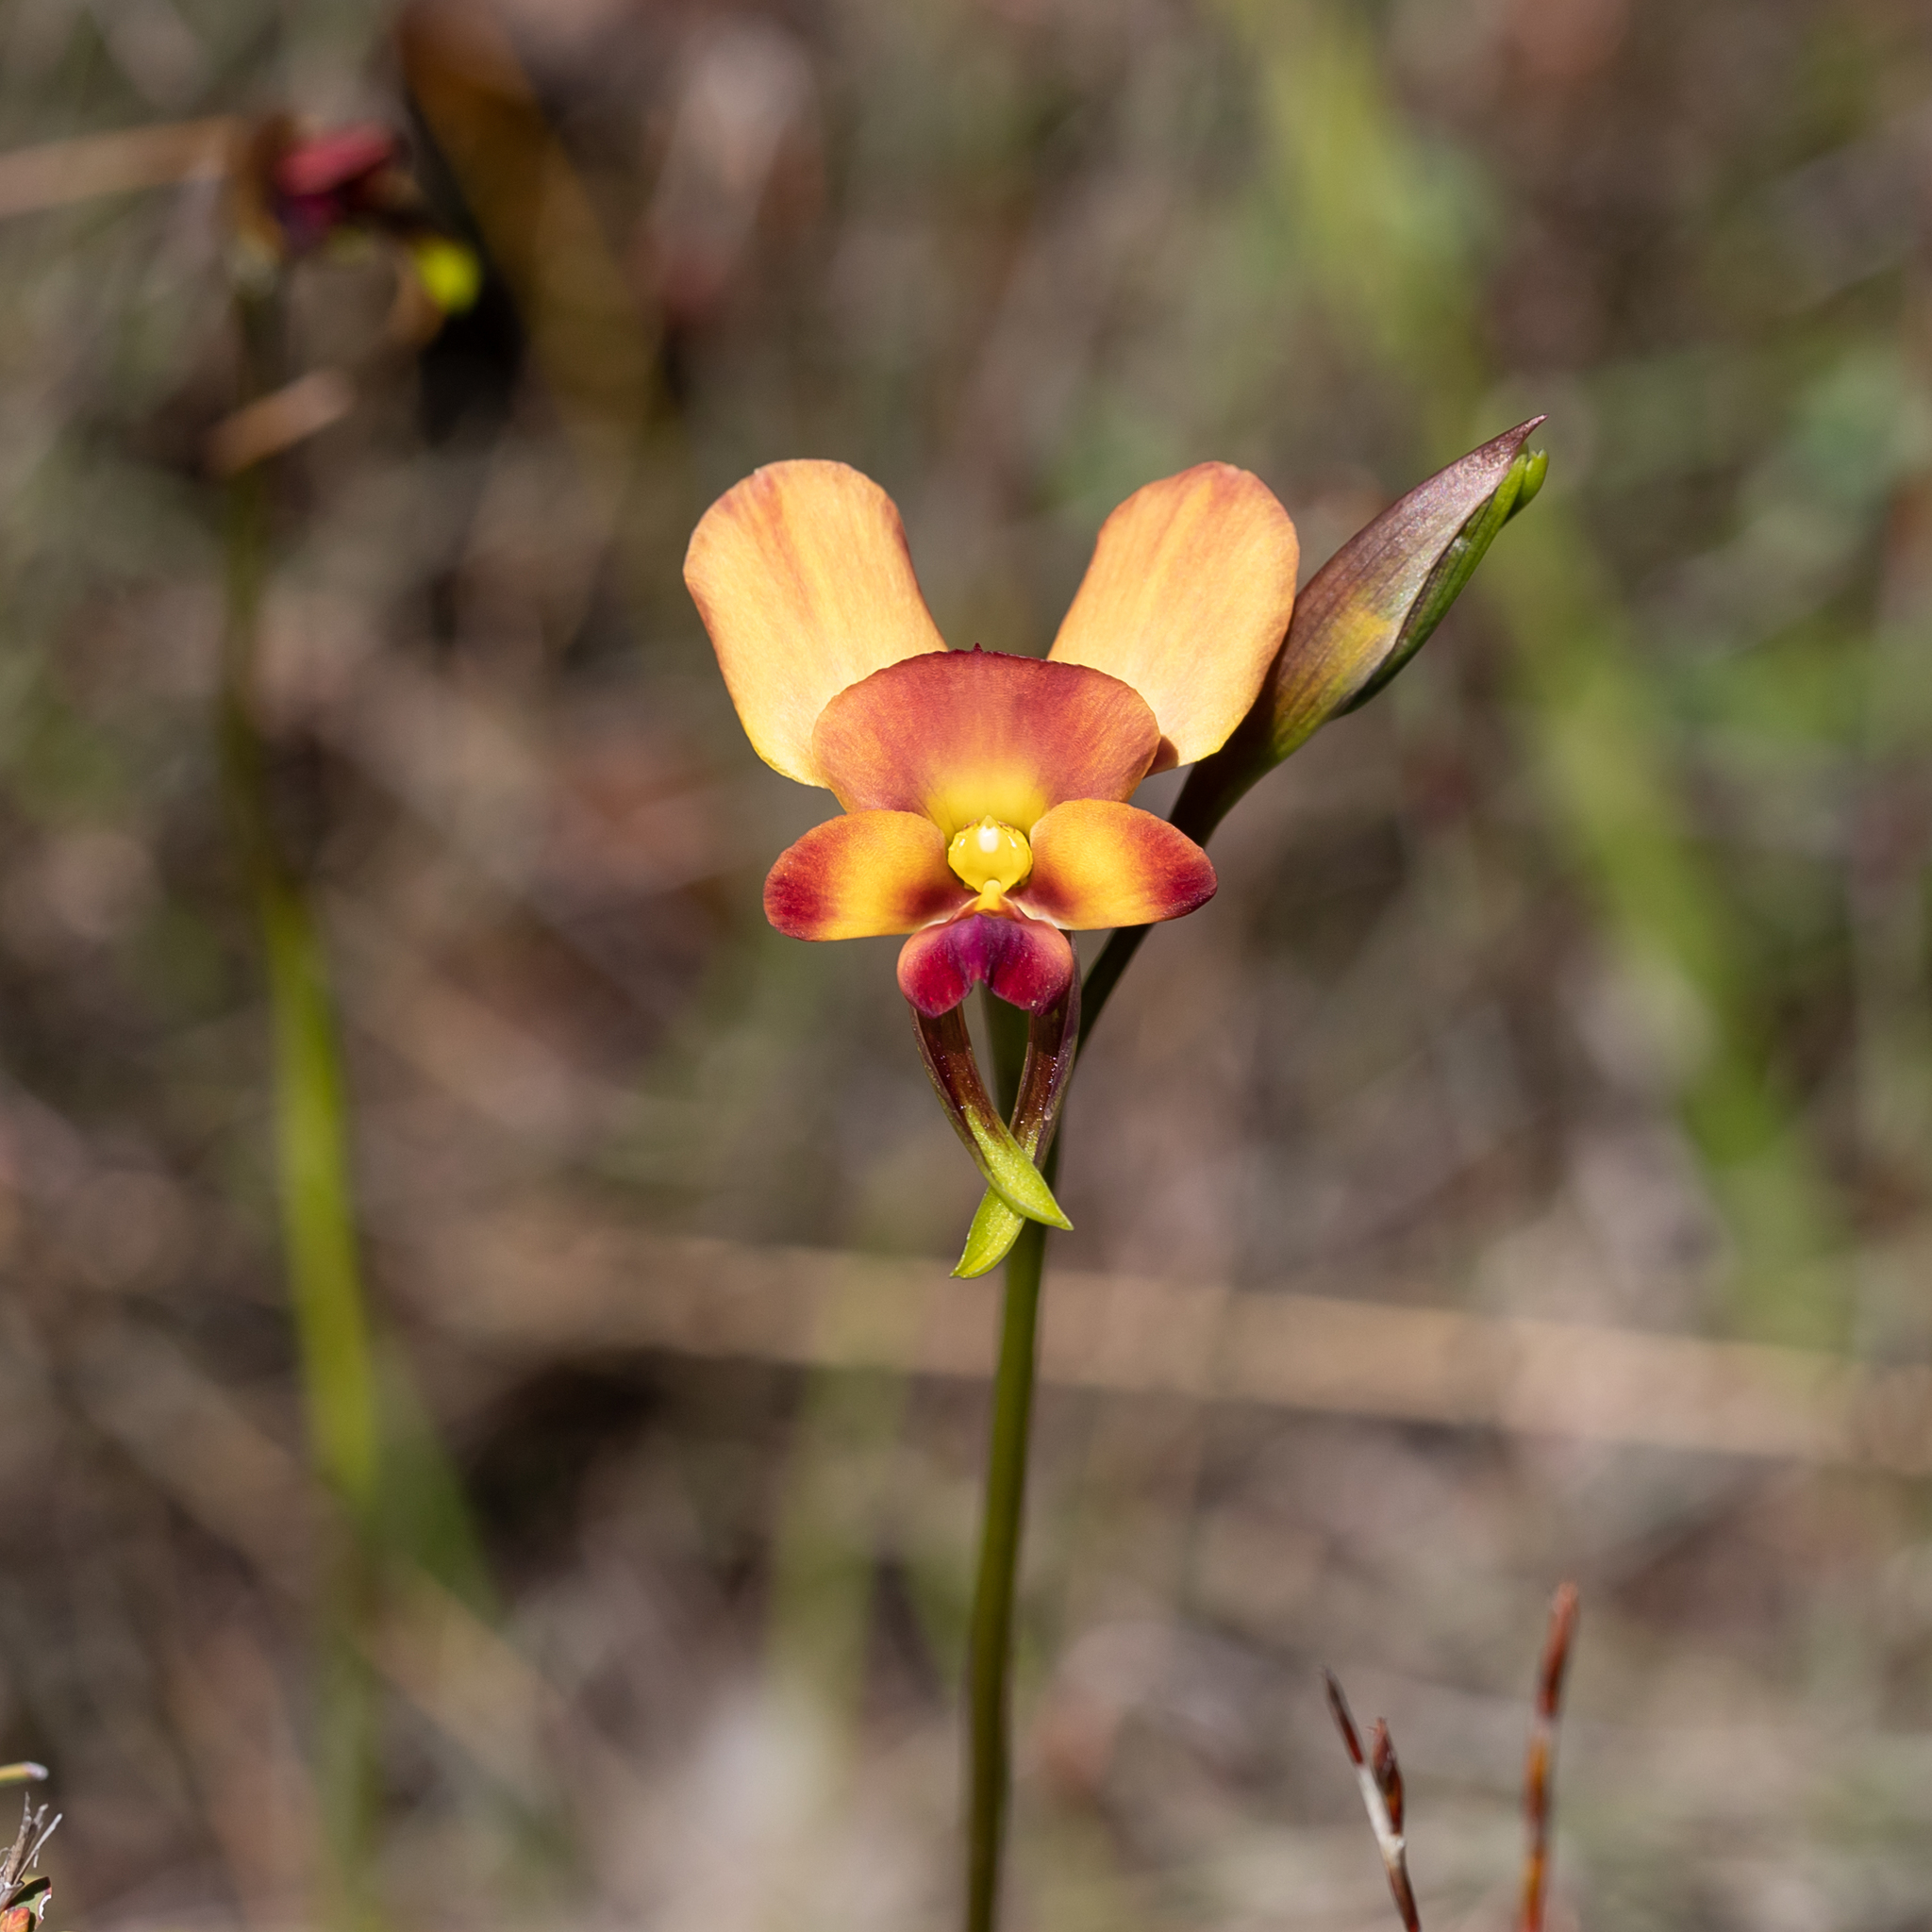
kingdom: Plantae
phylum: Tracheophyta
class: Liliopsida
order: Asparagales
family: Orchidaceae
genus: Diuris
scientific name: Diuris orientis
